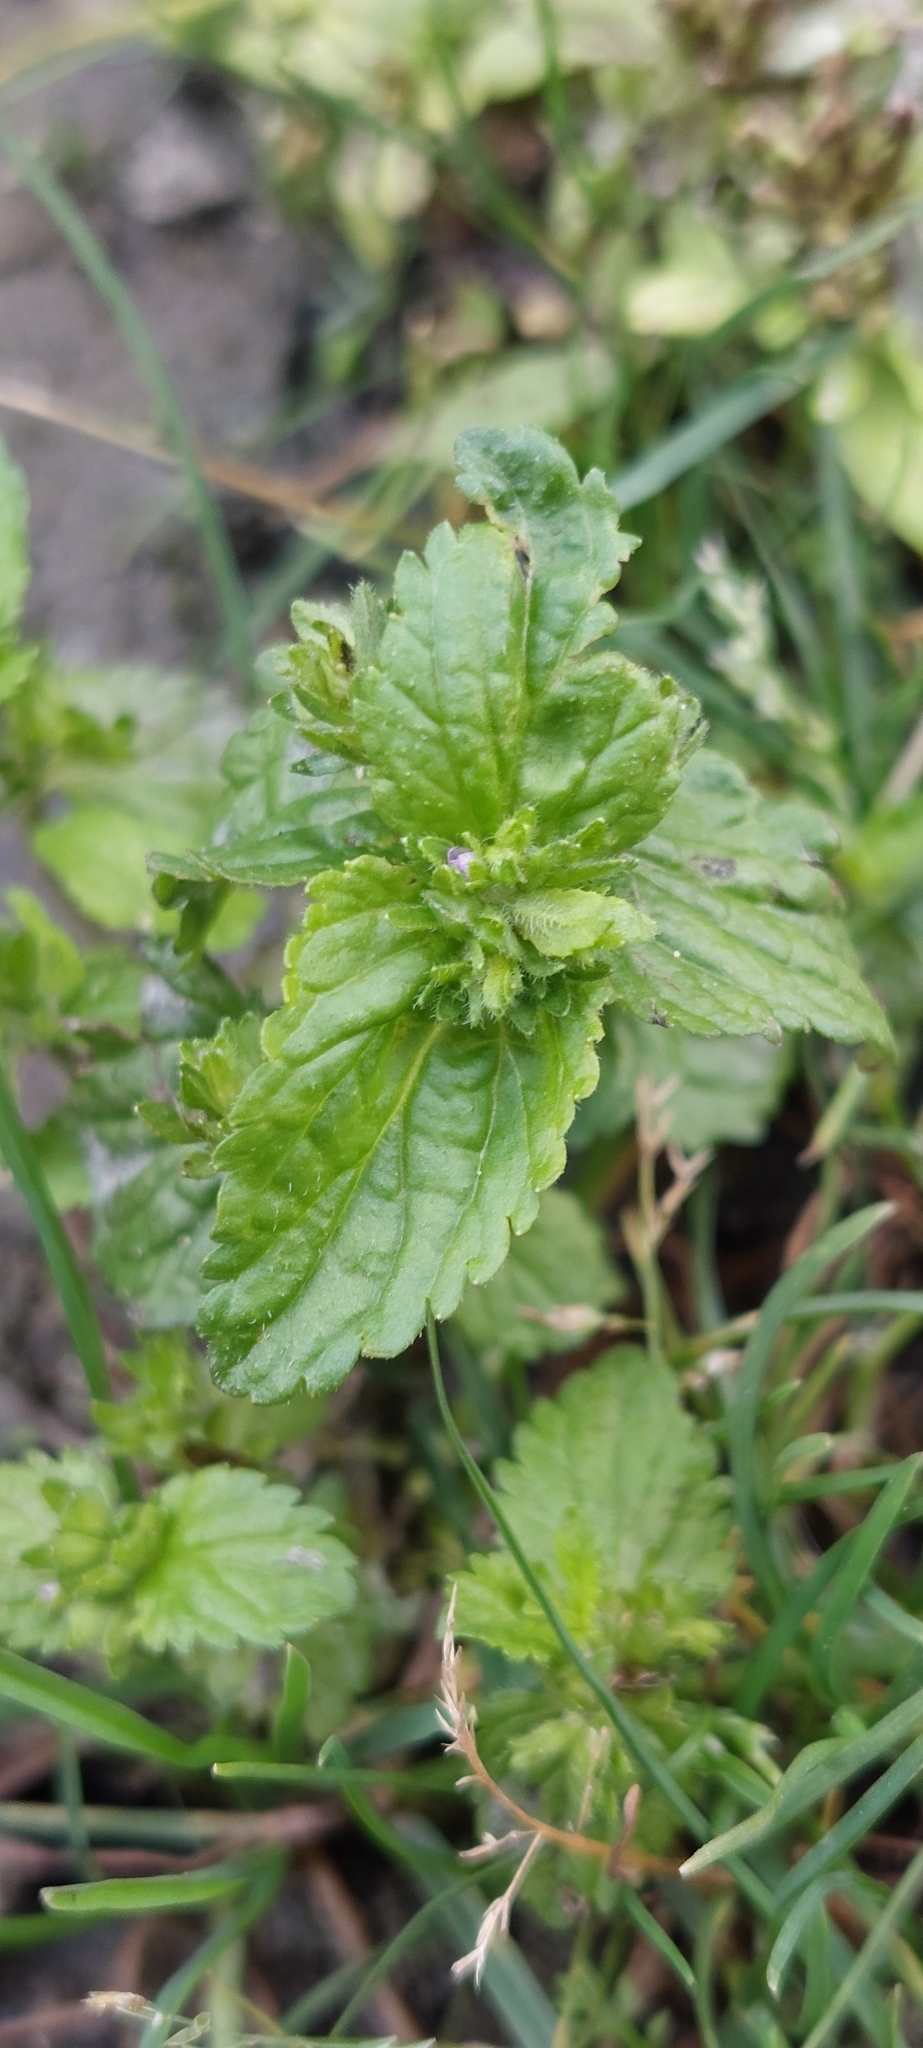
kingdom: Plantae
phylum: Tracheophyta
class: Magnoliopsida
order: Lamiales
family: Plantaginaceae
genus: Veronica
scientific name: Veronica javanica
